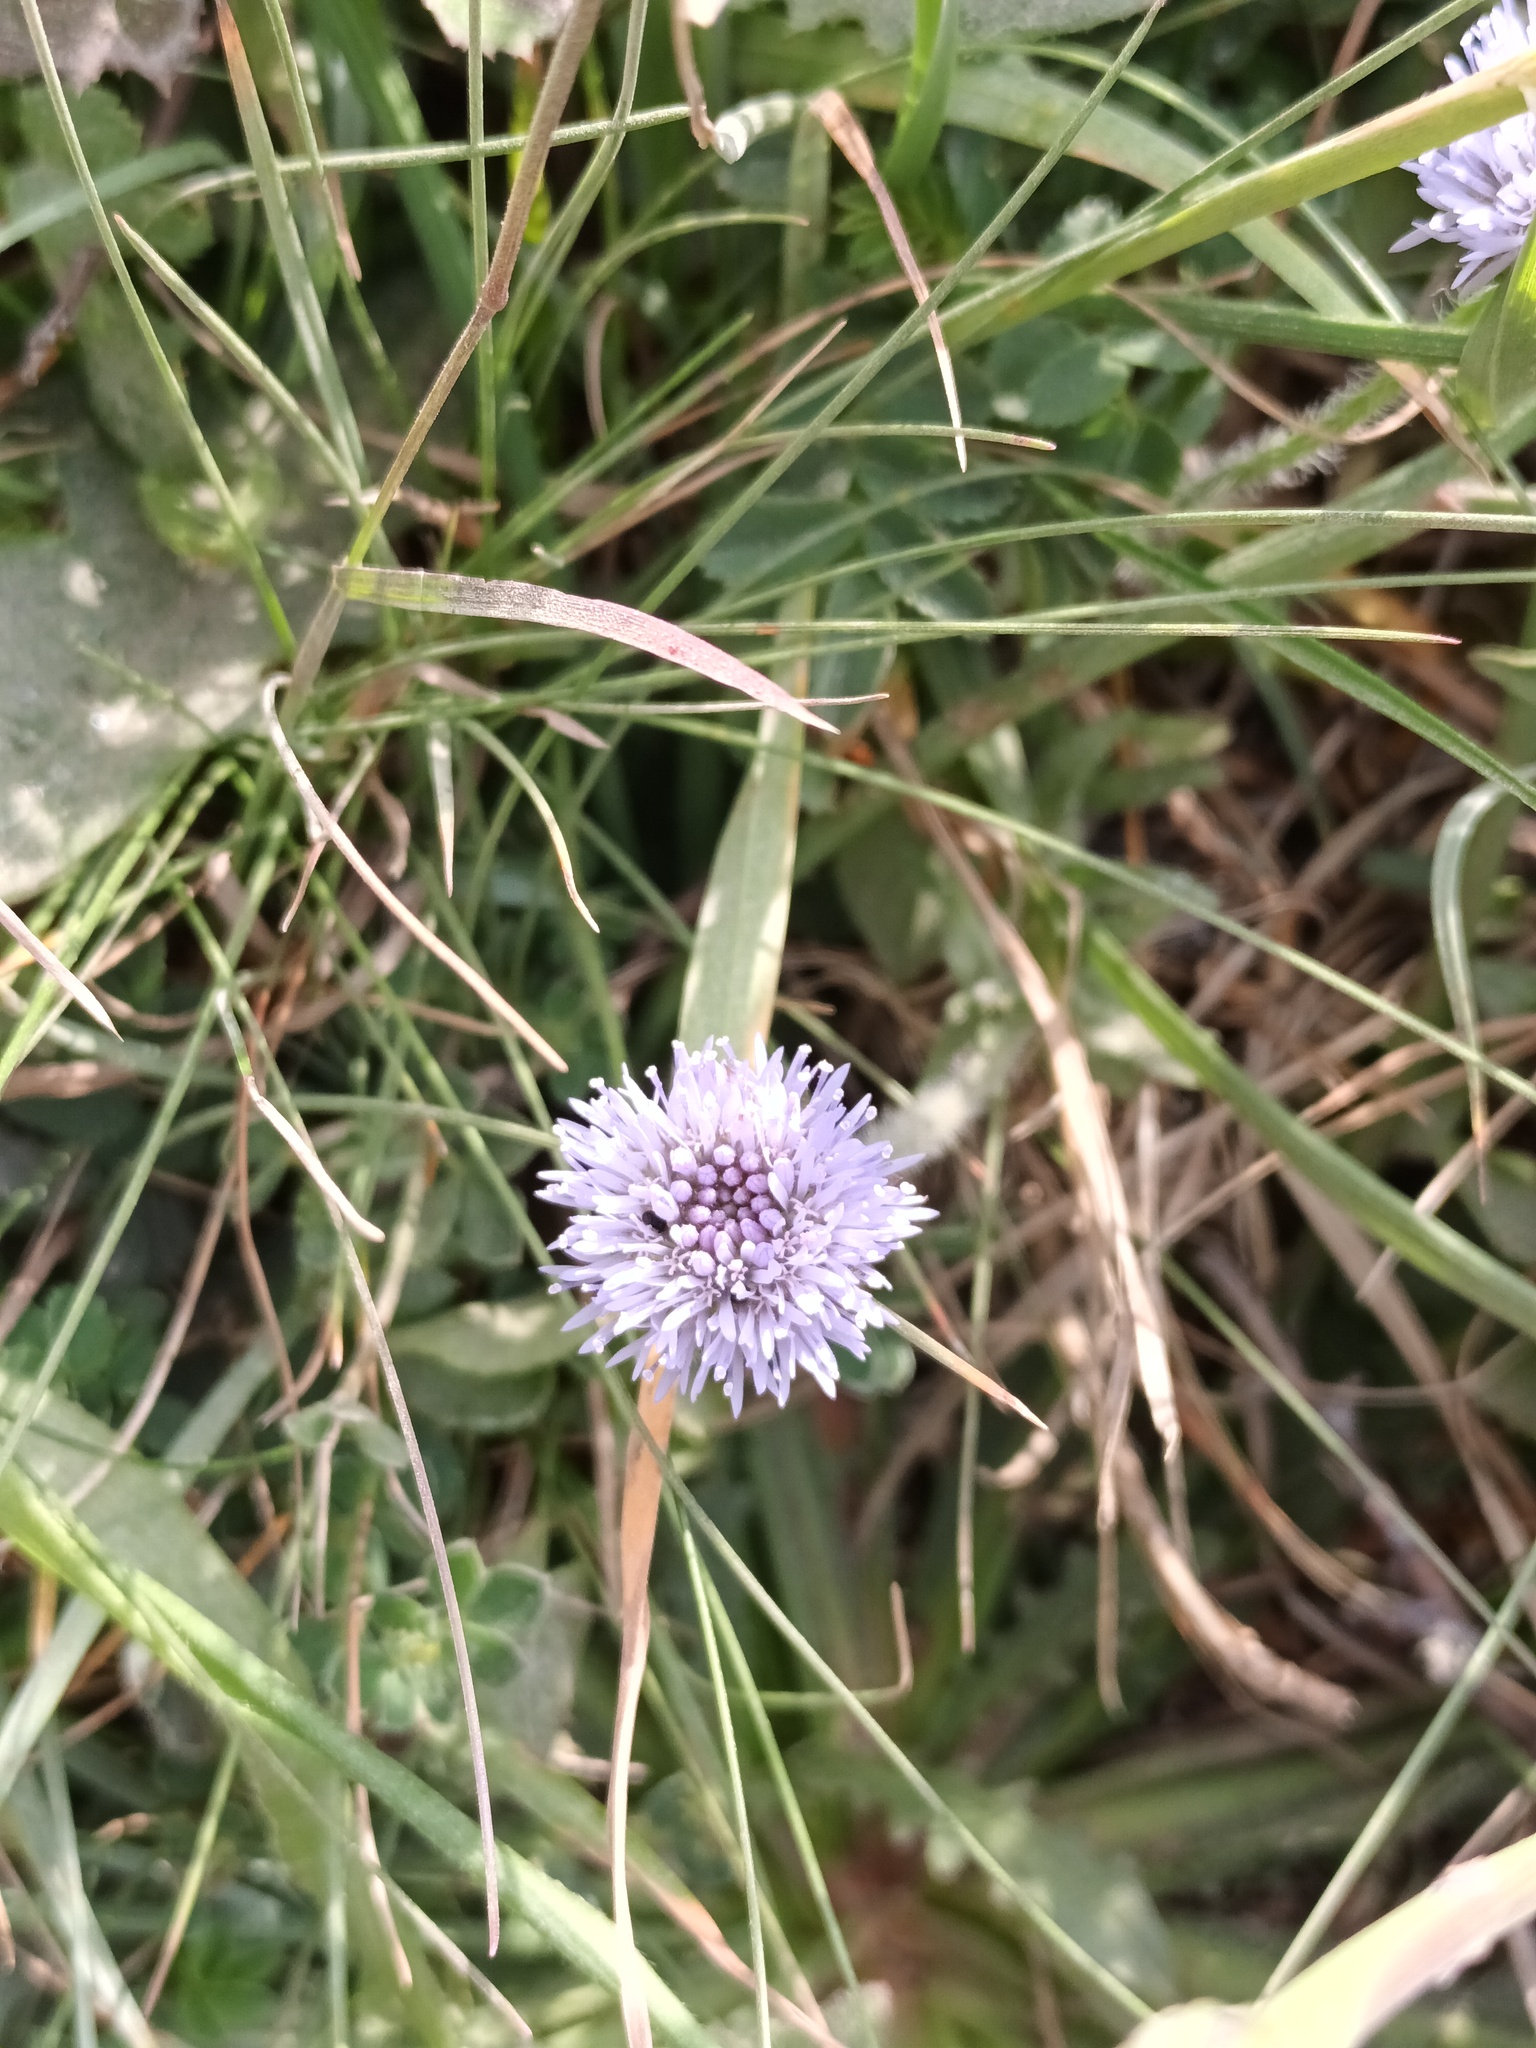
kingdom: Plantae
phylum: Tracheophyta
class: Magnoliopsida
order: Asterales
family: Campanulaceae
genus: Jasione
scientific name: Jasione montana
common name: Sheep's-bit
